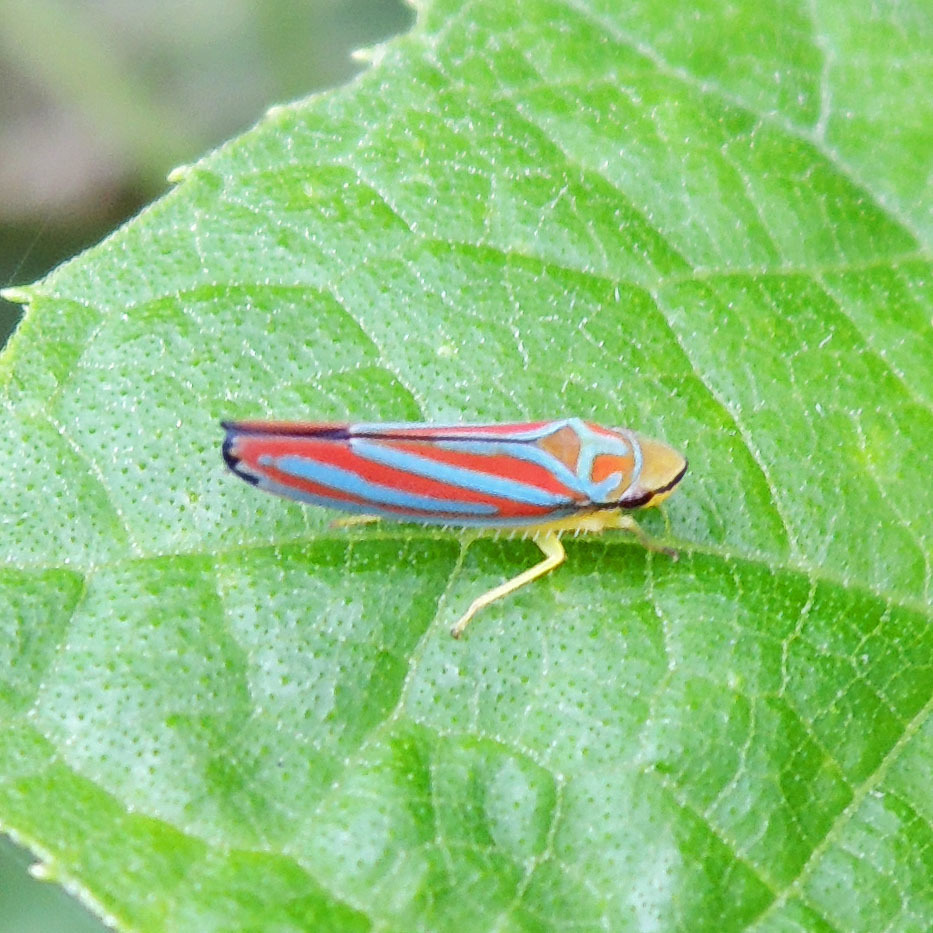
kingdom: Animalia
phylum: Arthropoda
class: Insecta
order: Hemiptera
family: Cicadellidae
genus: Graphocephala
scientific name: Graphocephala coccinea
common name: Candy-striped leafhopper
